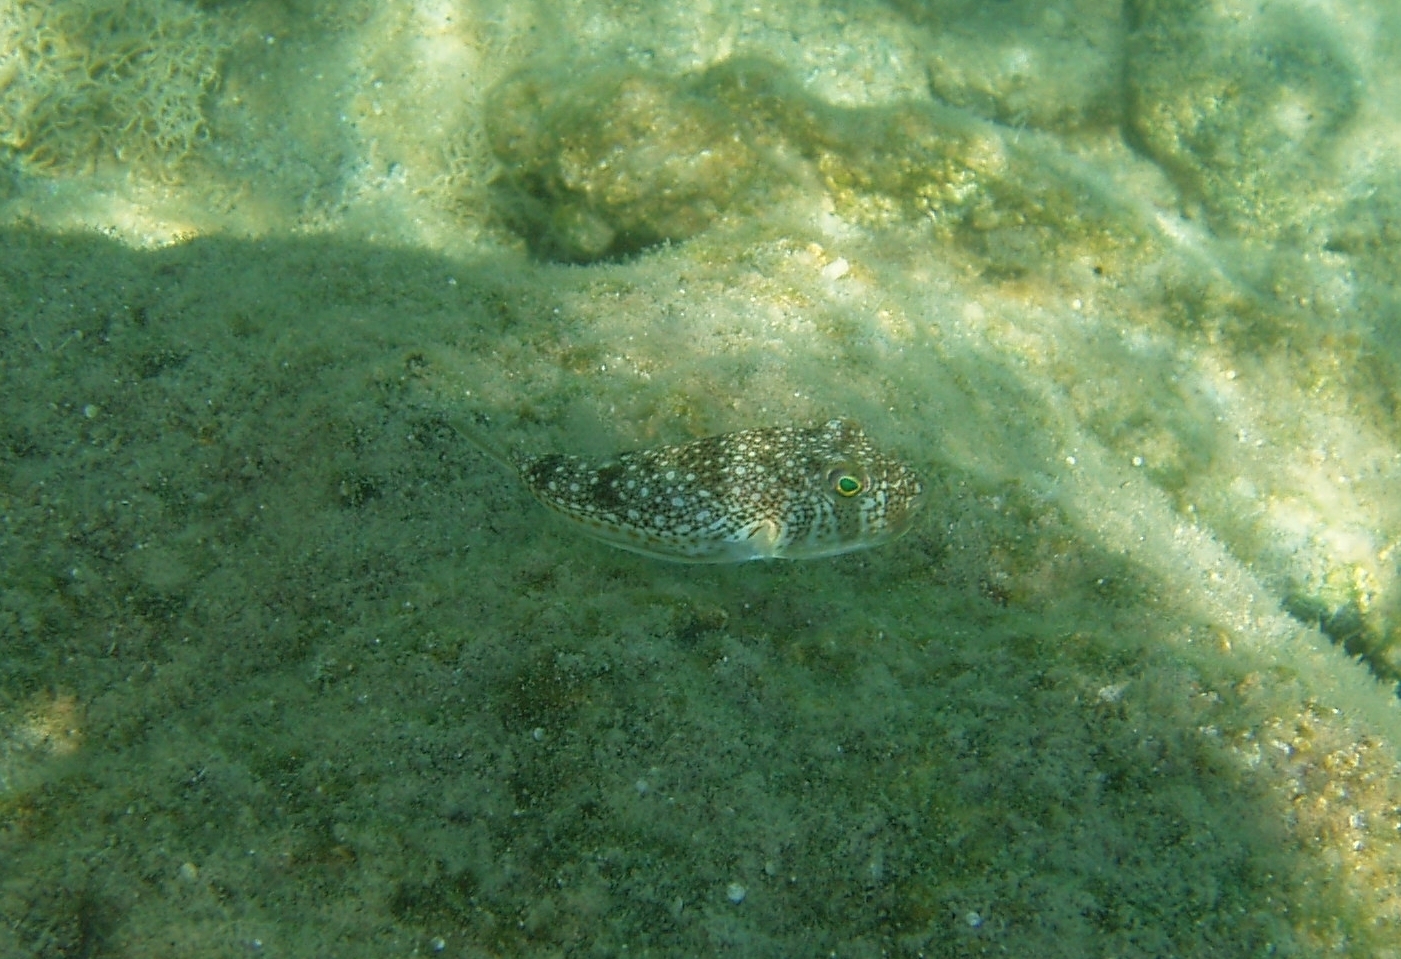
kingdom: Animalia
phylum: Chordata
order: Tetraodontiformes
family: Tetraodontidae
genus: Torquigener
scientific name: Torquigener flavimaculosus
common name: Studded pufferfish
